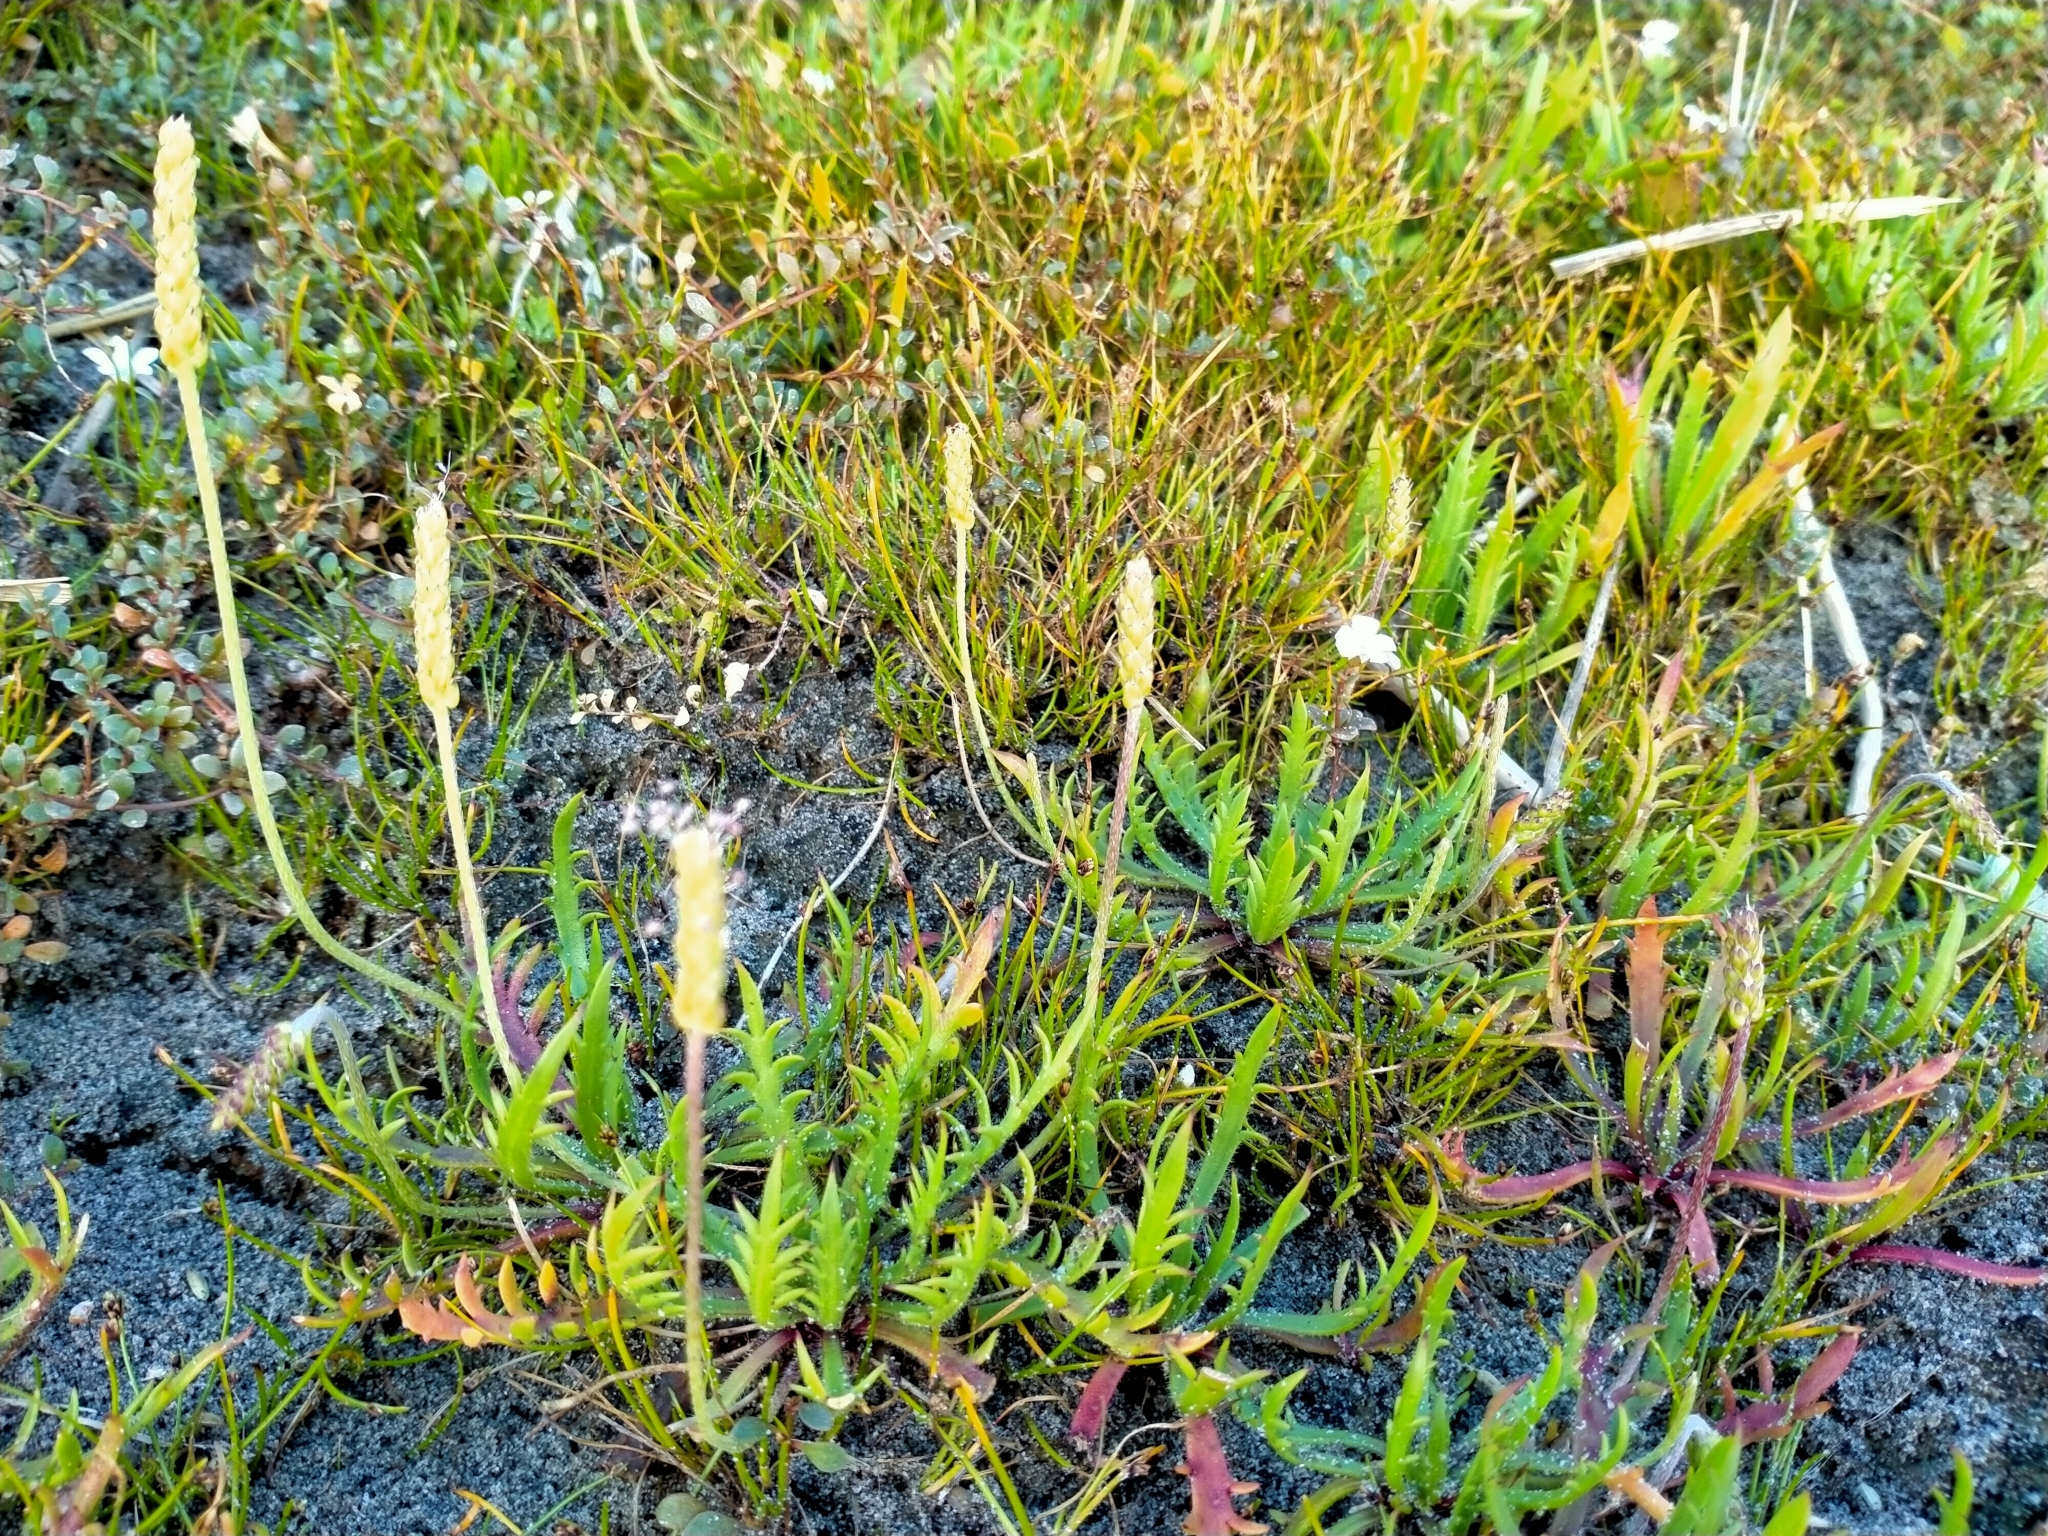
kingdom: Plantae
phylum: Tracheophyta
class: Magnoliopsida
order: Lamiales
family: Plantaginaceae
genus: Plantago
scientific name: Plantago coronopus
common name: Buck's-horn plantain
